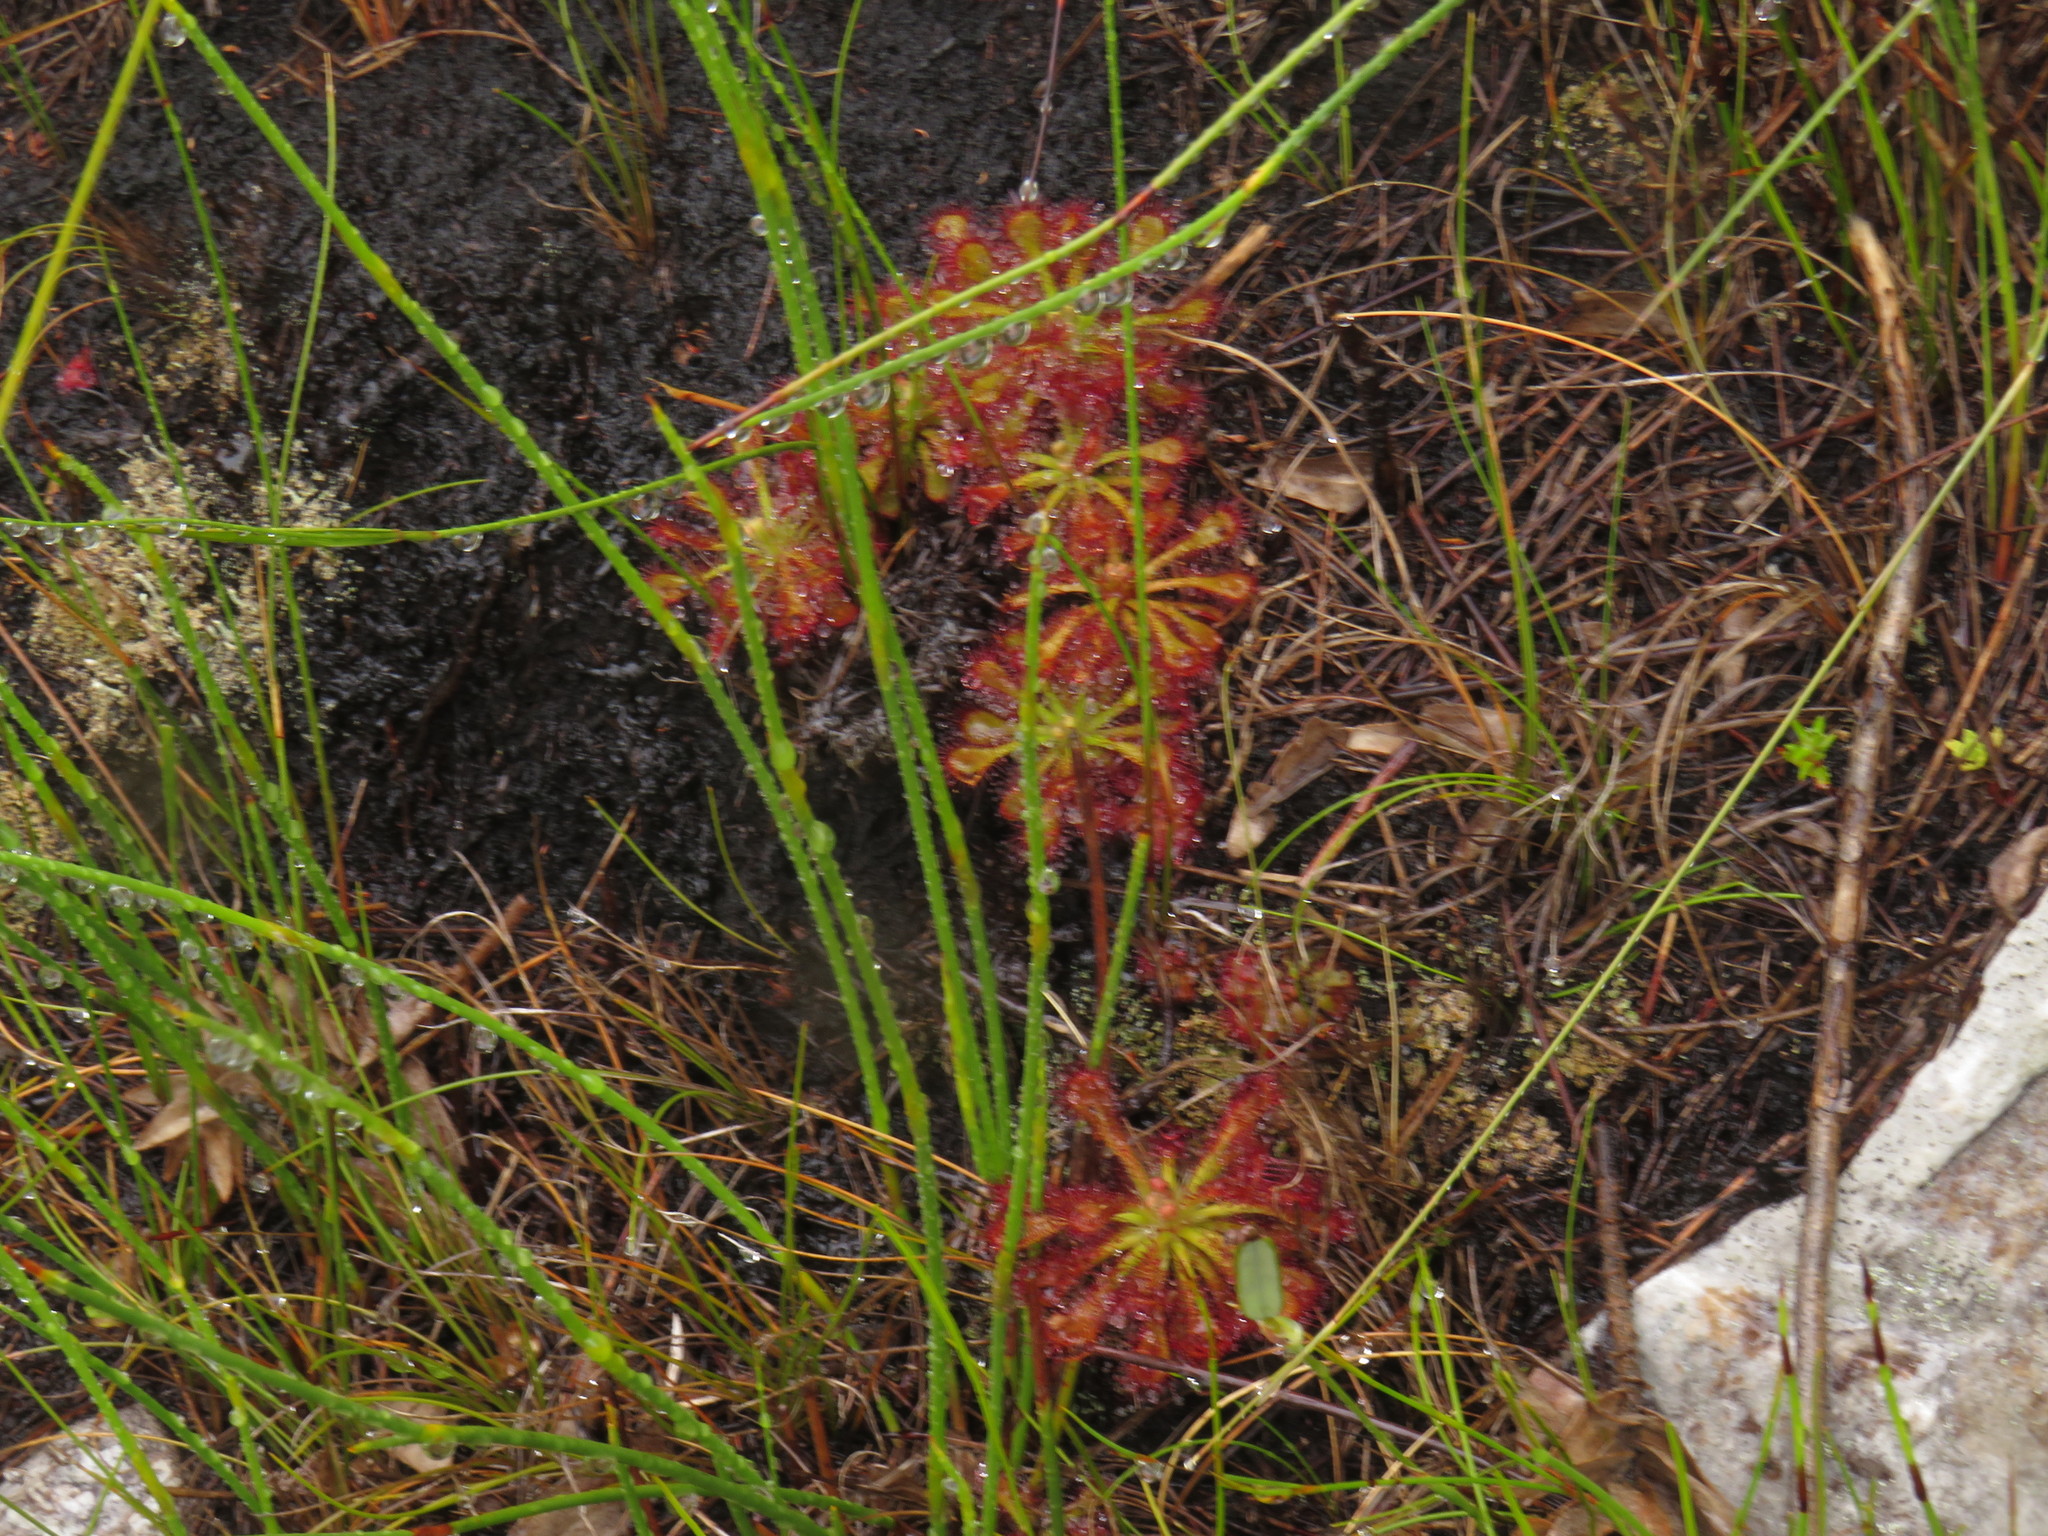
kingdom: Plantae
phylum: Tracheophyta
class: Magnoliopsida
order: Caryophyllales
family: Droseraceae
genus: Drosera
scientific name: Drosera
